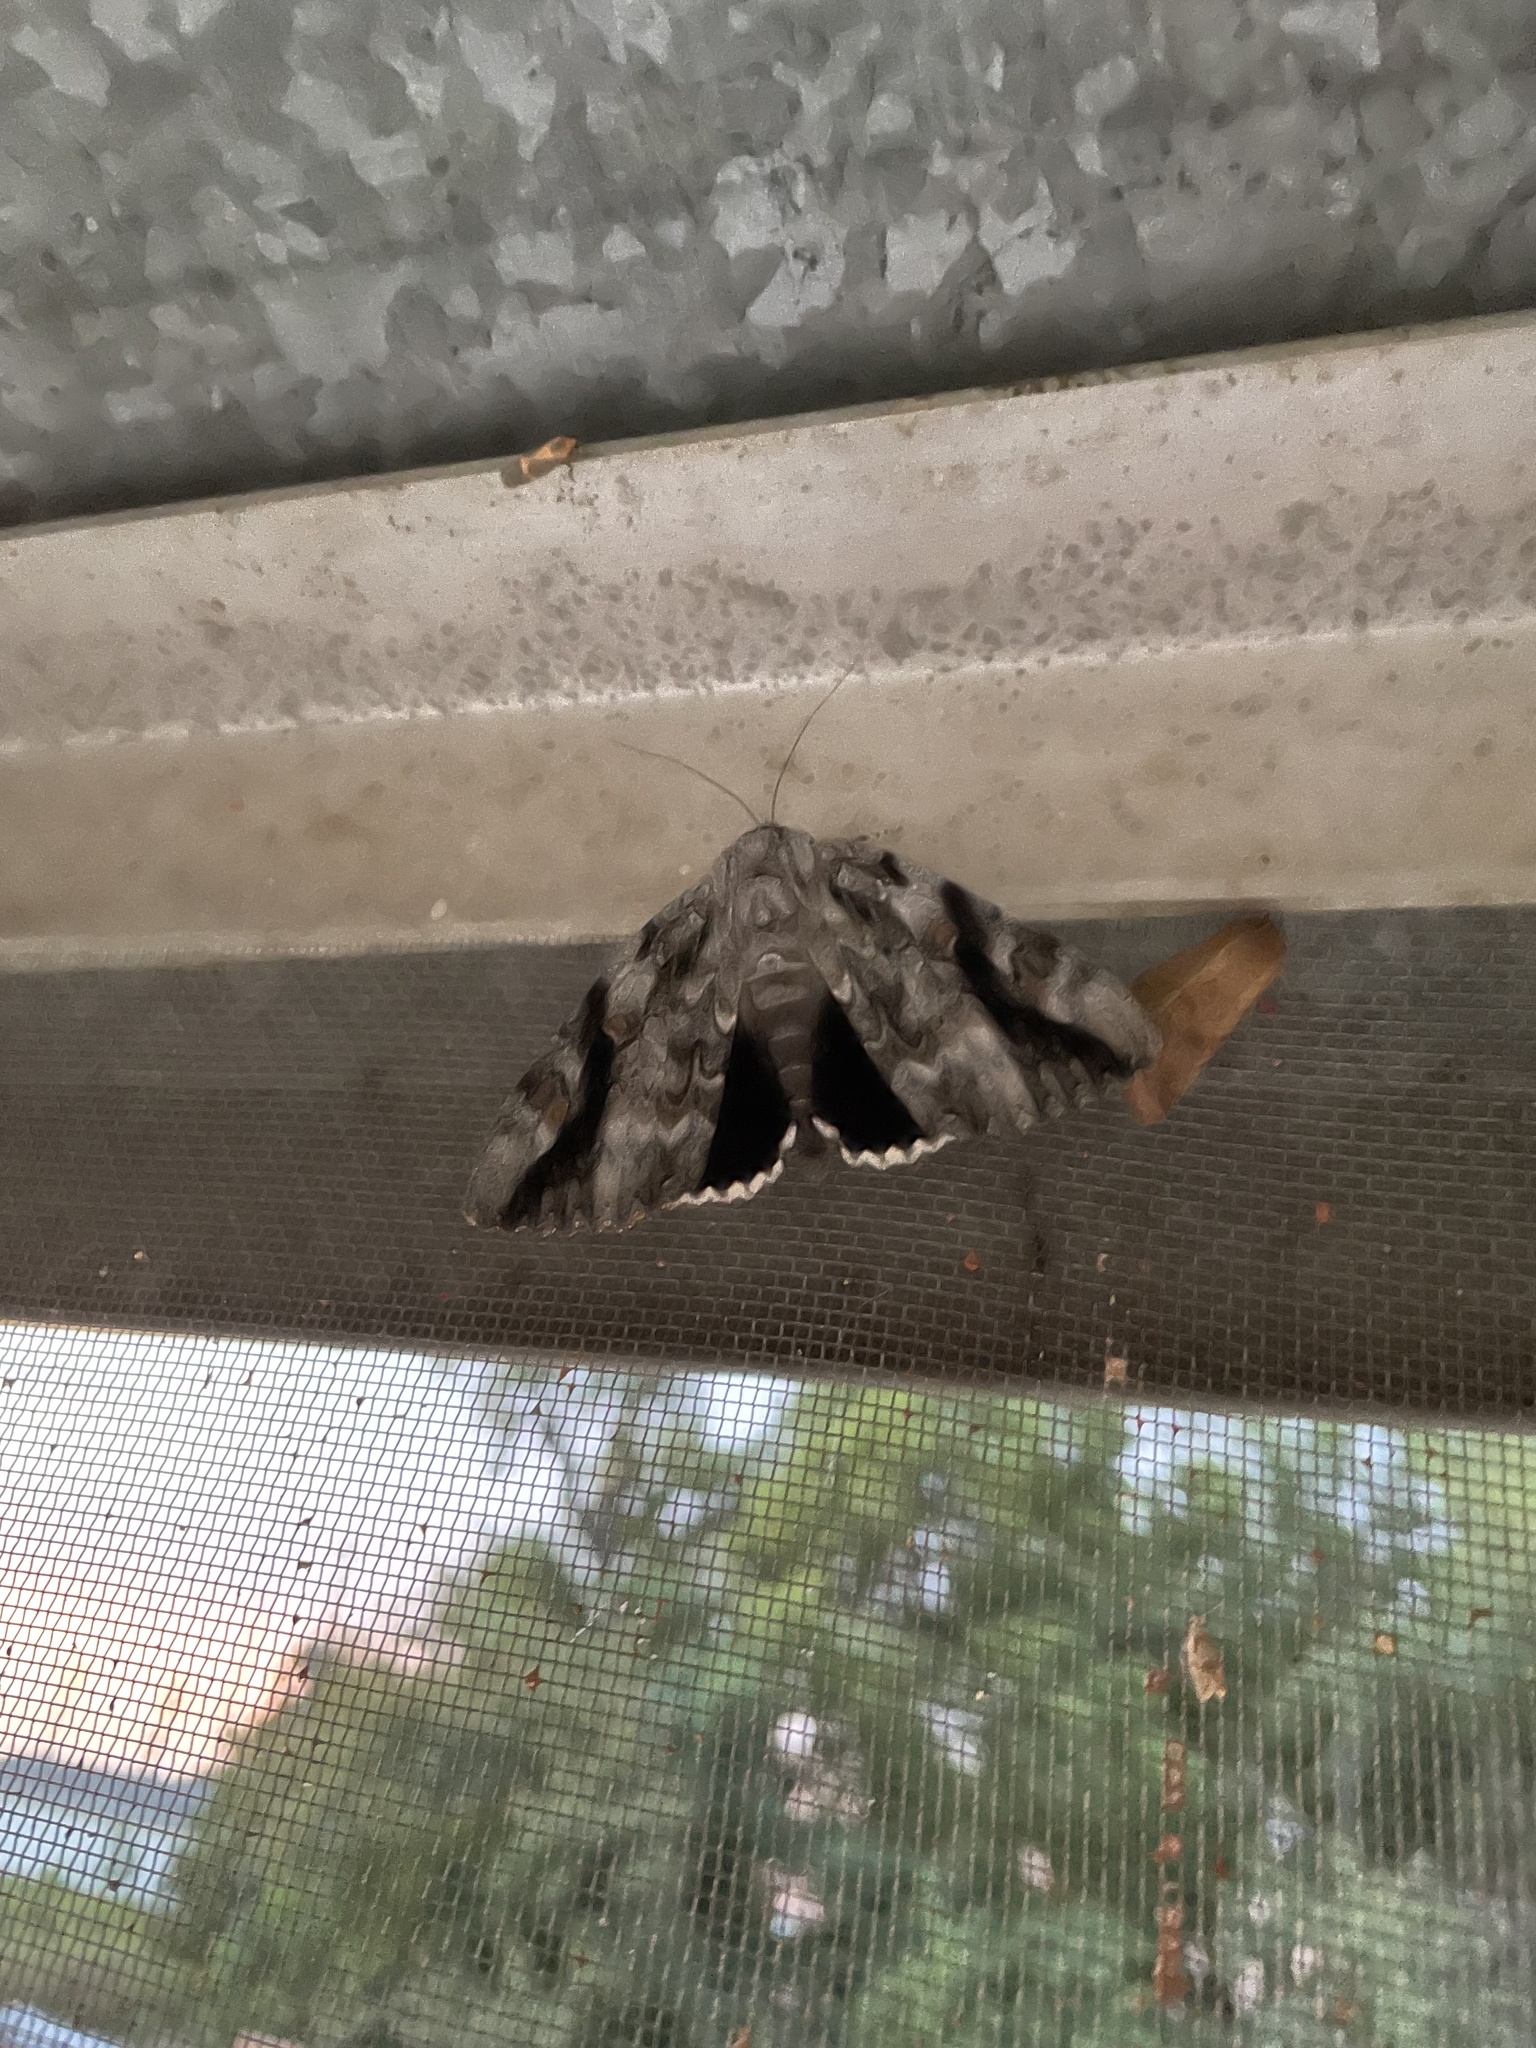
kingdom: Animalia
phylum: Arthropoda
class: Insecta
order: Lepidoptera
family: Erebidae
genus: Catocala
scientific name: Catocala maestosa
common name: Sad underwing
